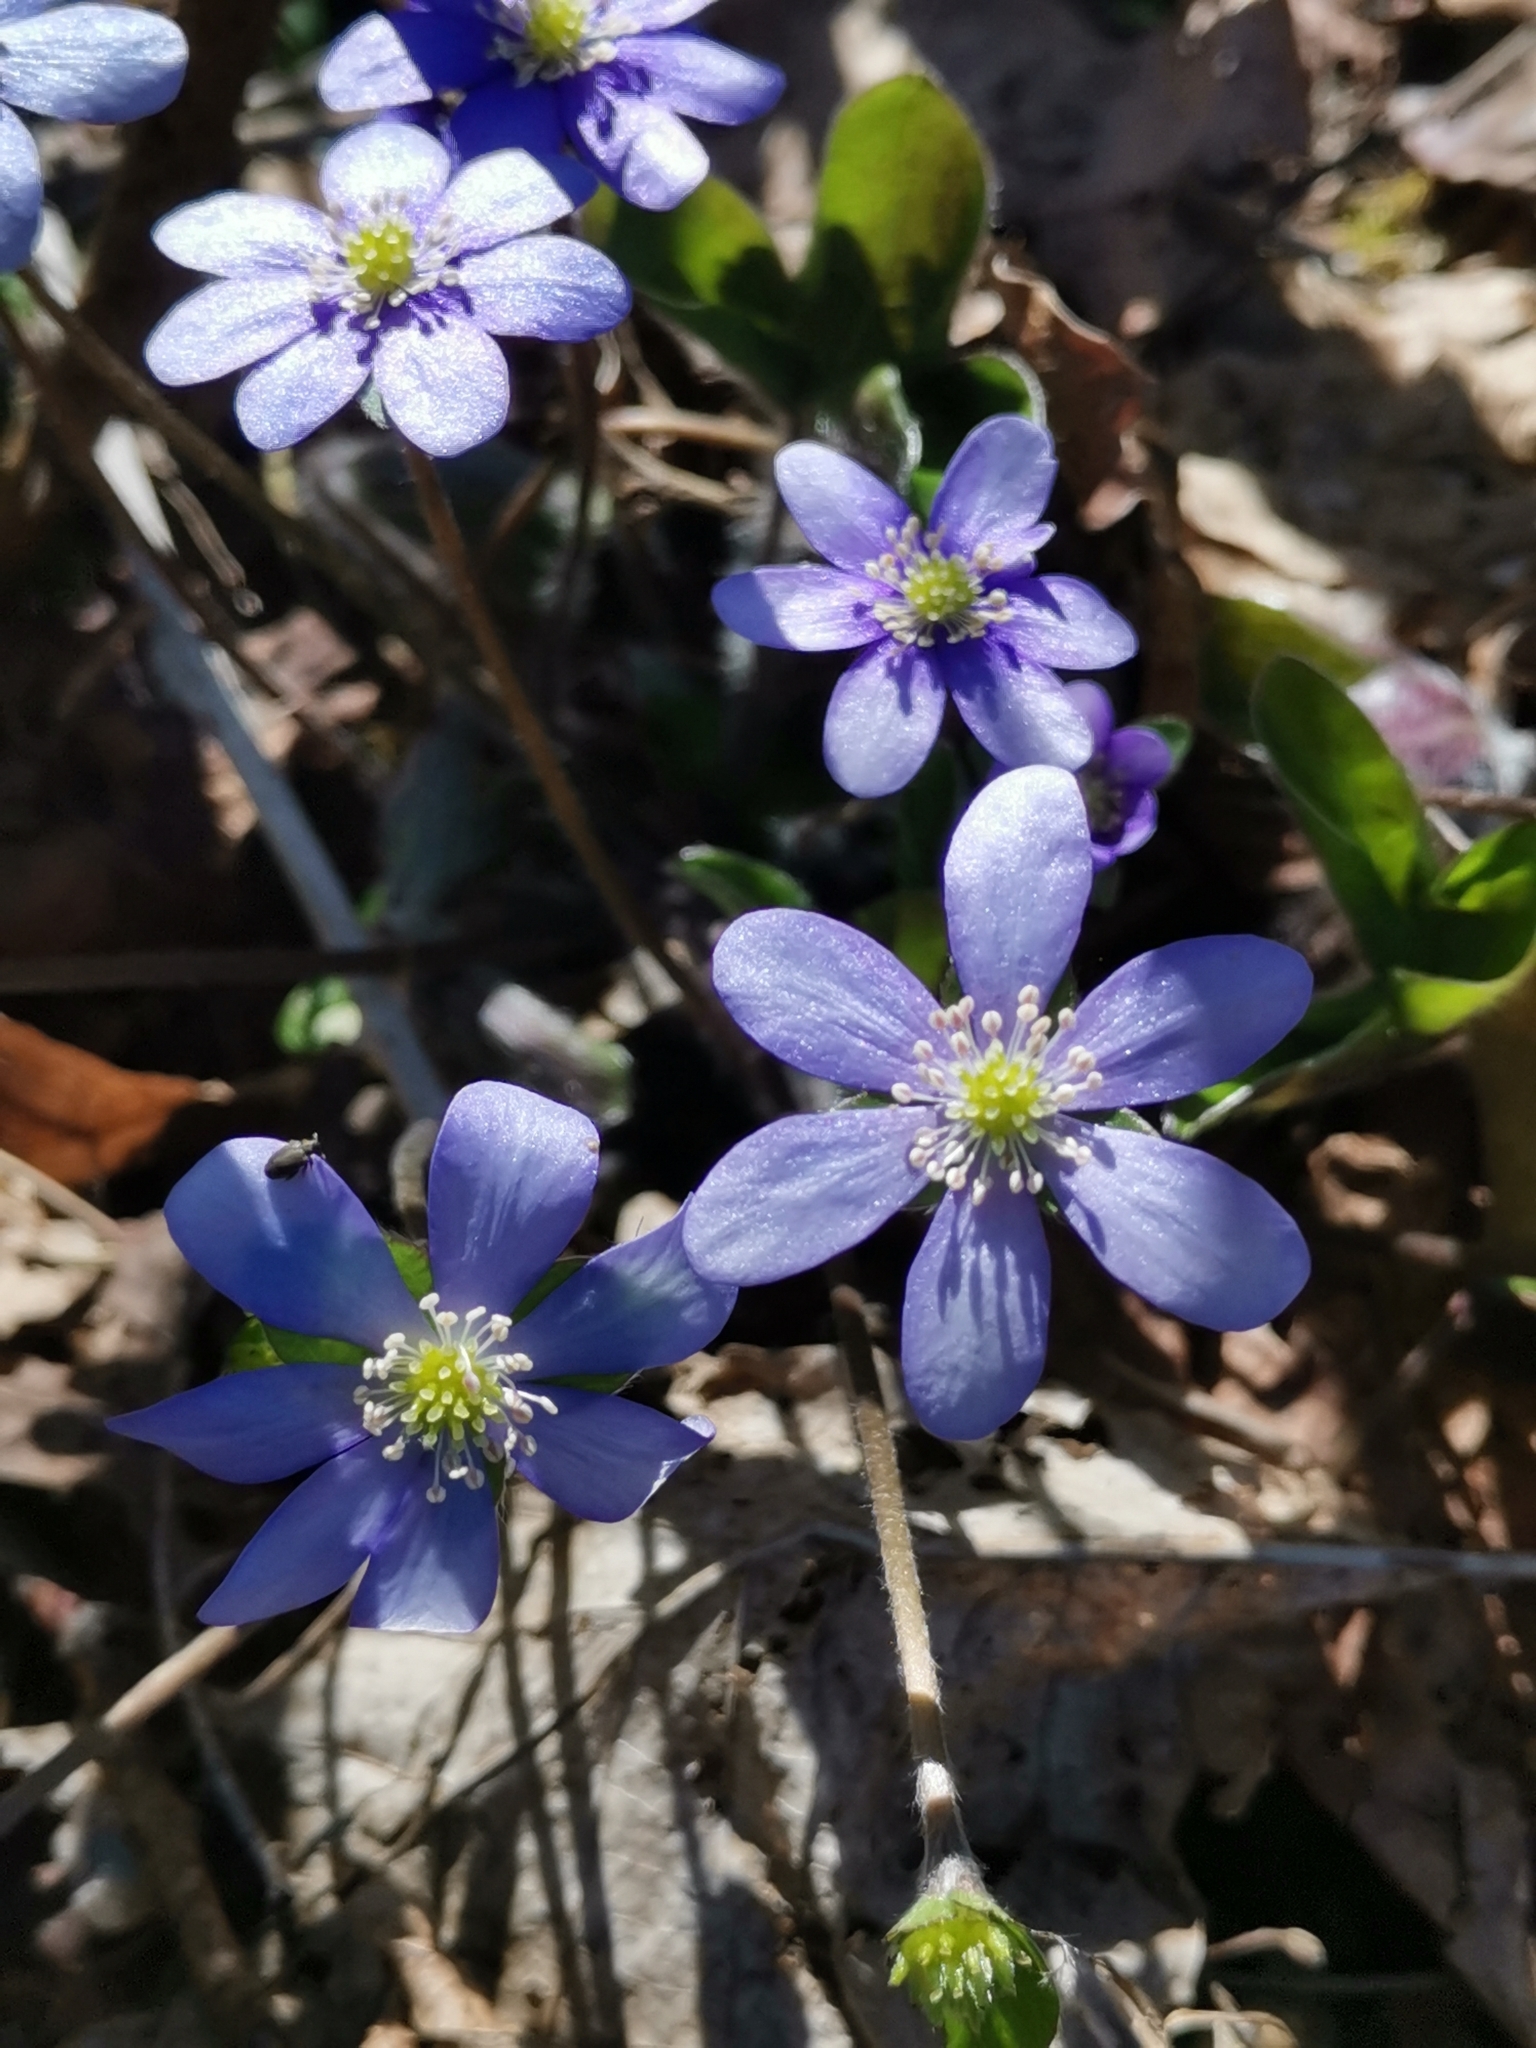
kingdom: Plantae
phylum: Tracheophyta
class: Magnoliopsida
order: Ranunculales
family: Ranunculaceae
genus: Hepatica
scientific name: Hepatica nobilis
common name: Liverleaf
